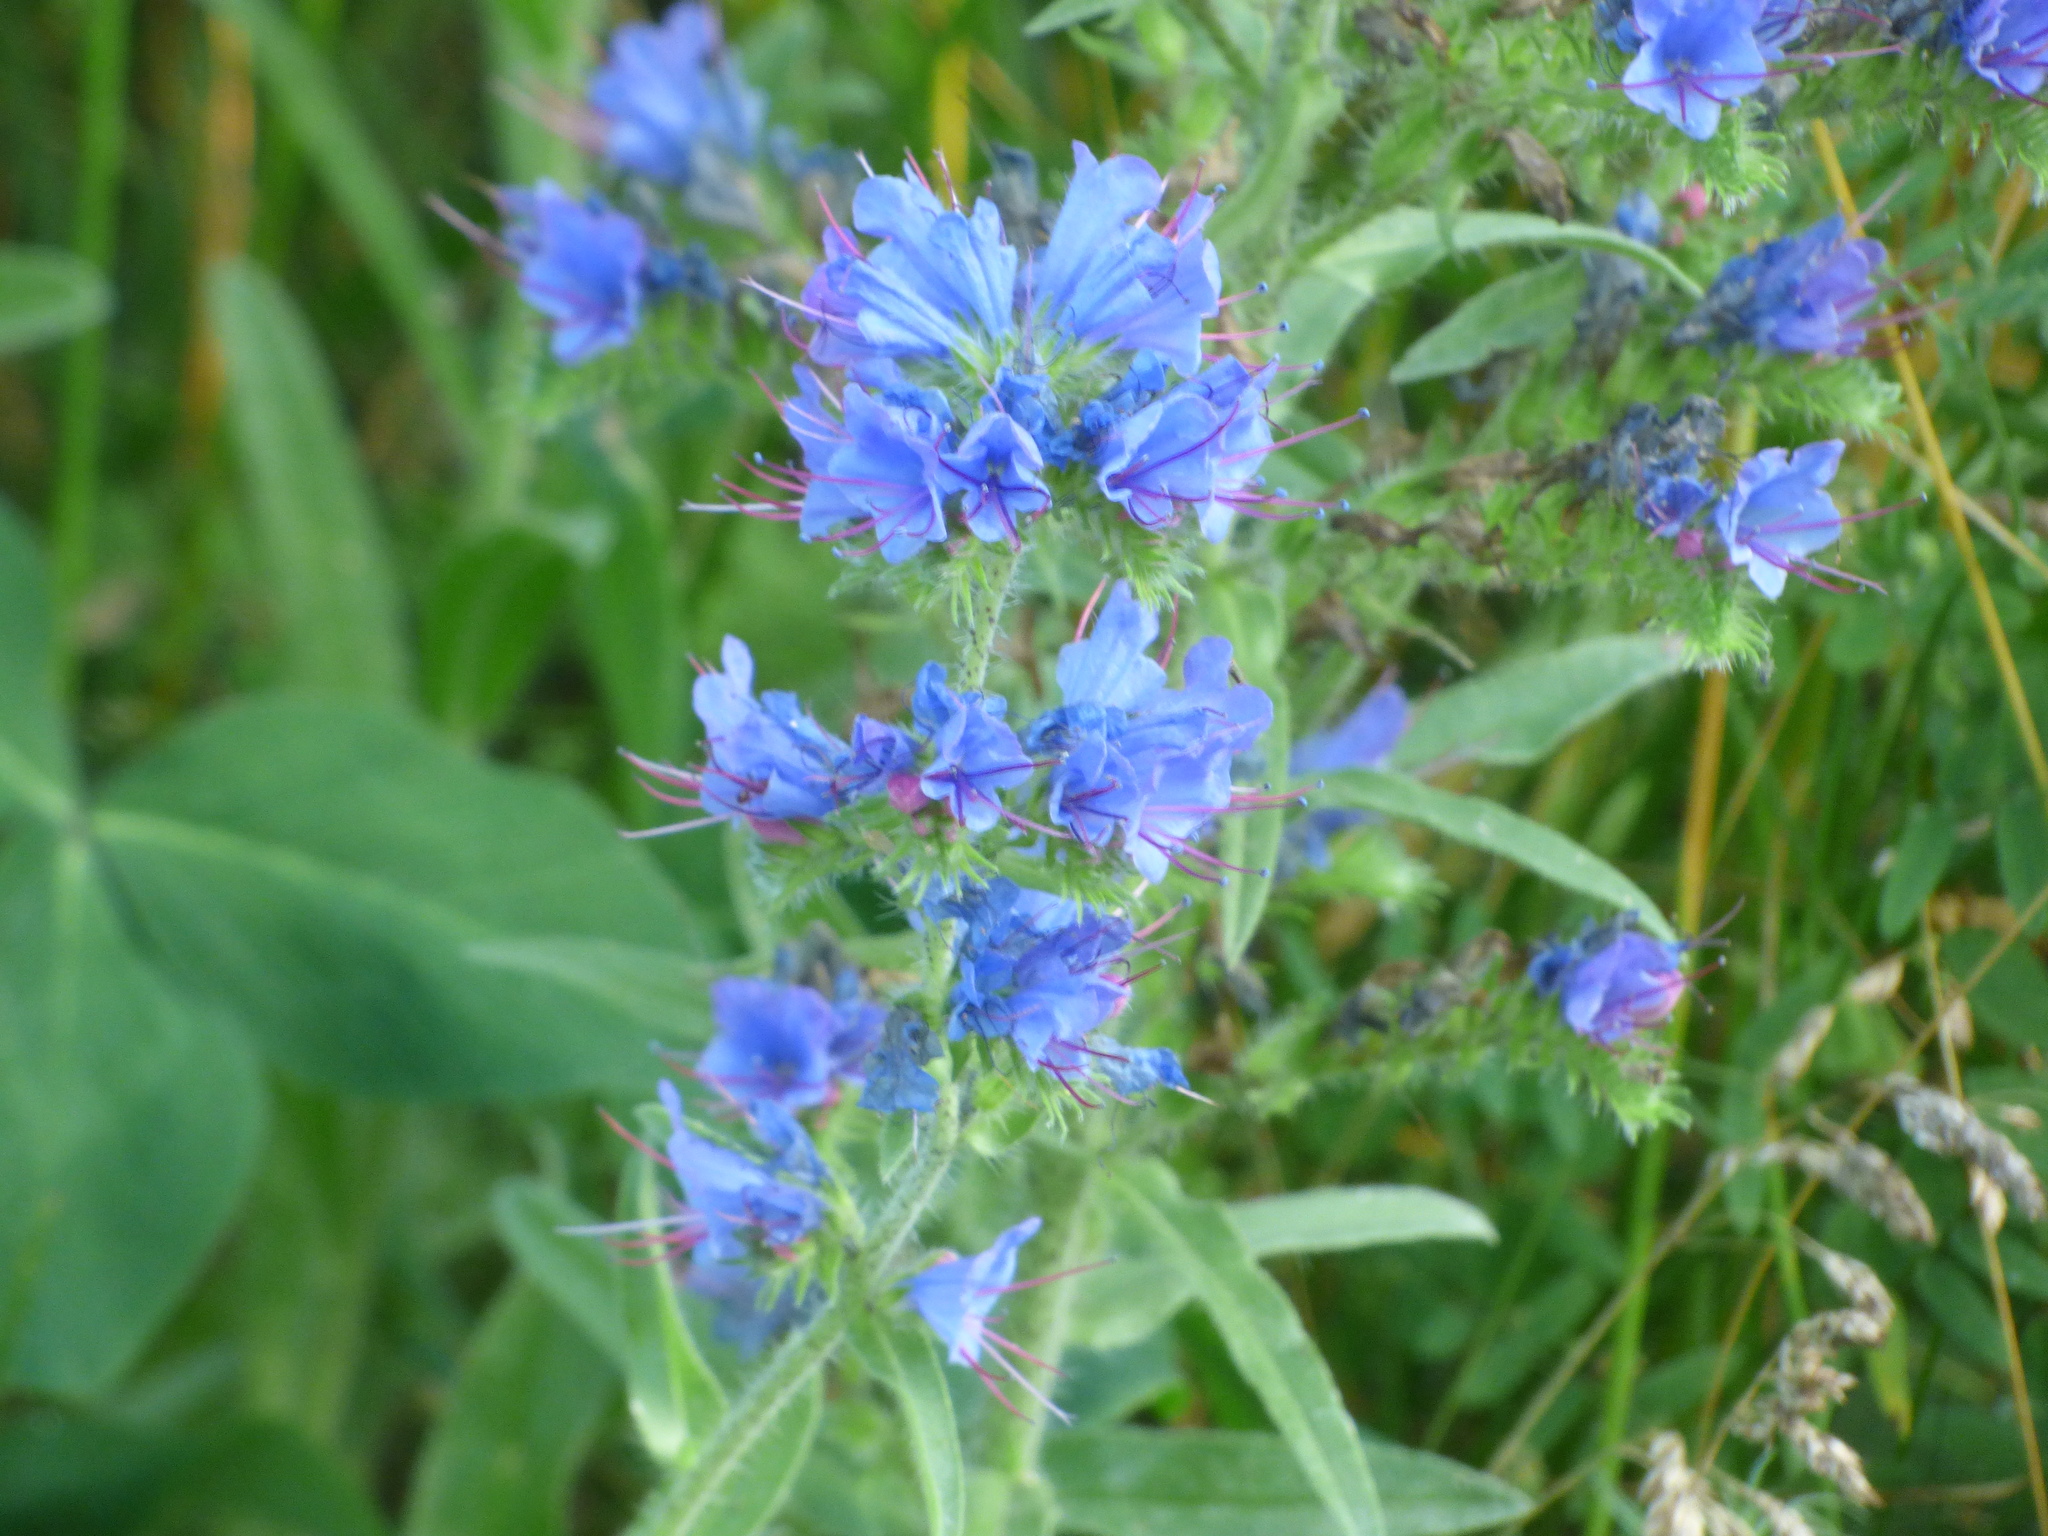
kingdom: Plantae
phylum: Tracheophyta
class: Magnoliopsida
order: Boraginales
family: Boraginaceae
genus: Echium
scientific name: Echium vulgare
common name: Common viper's bugloss
